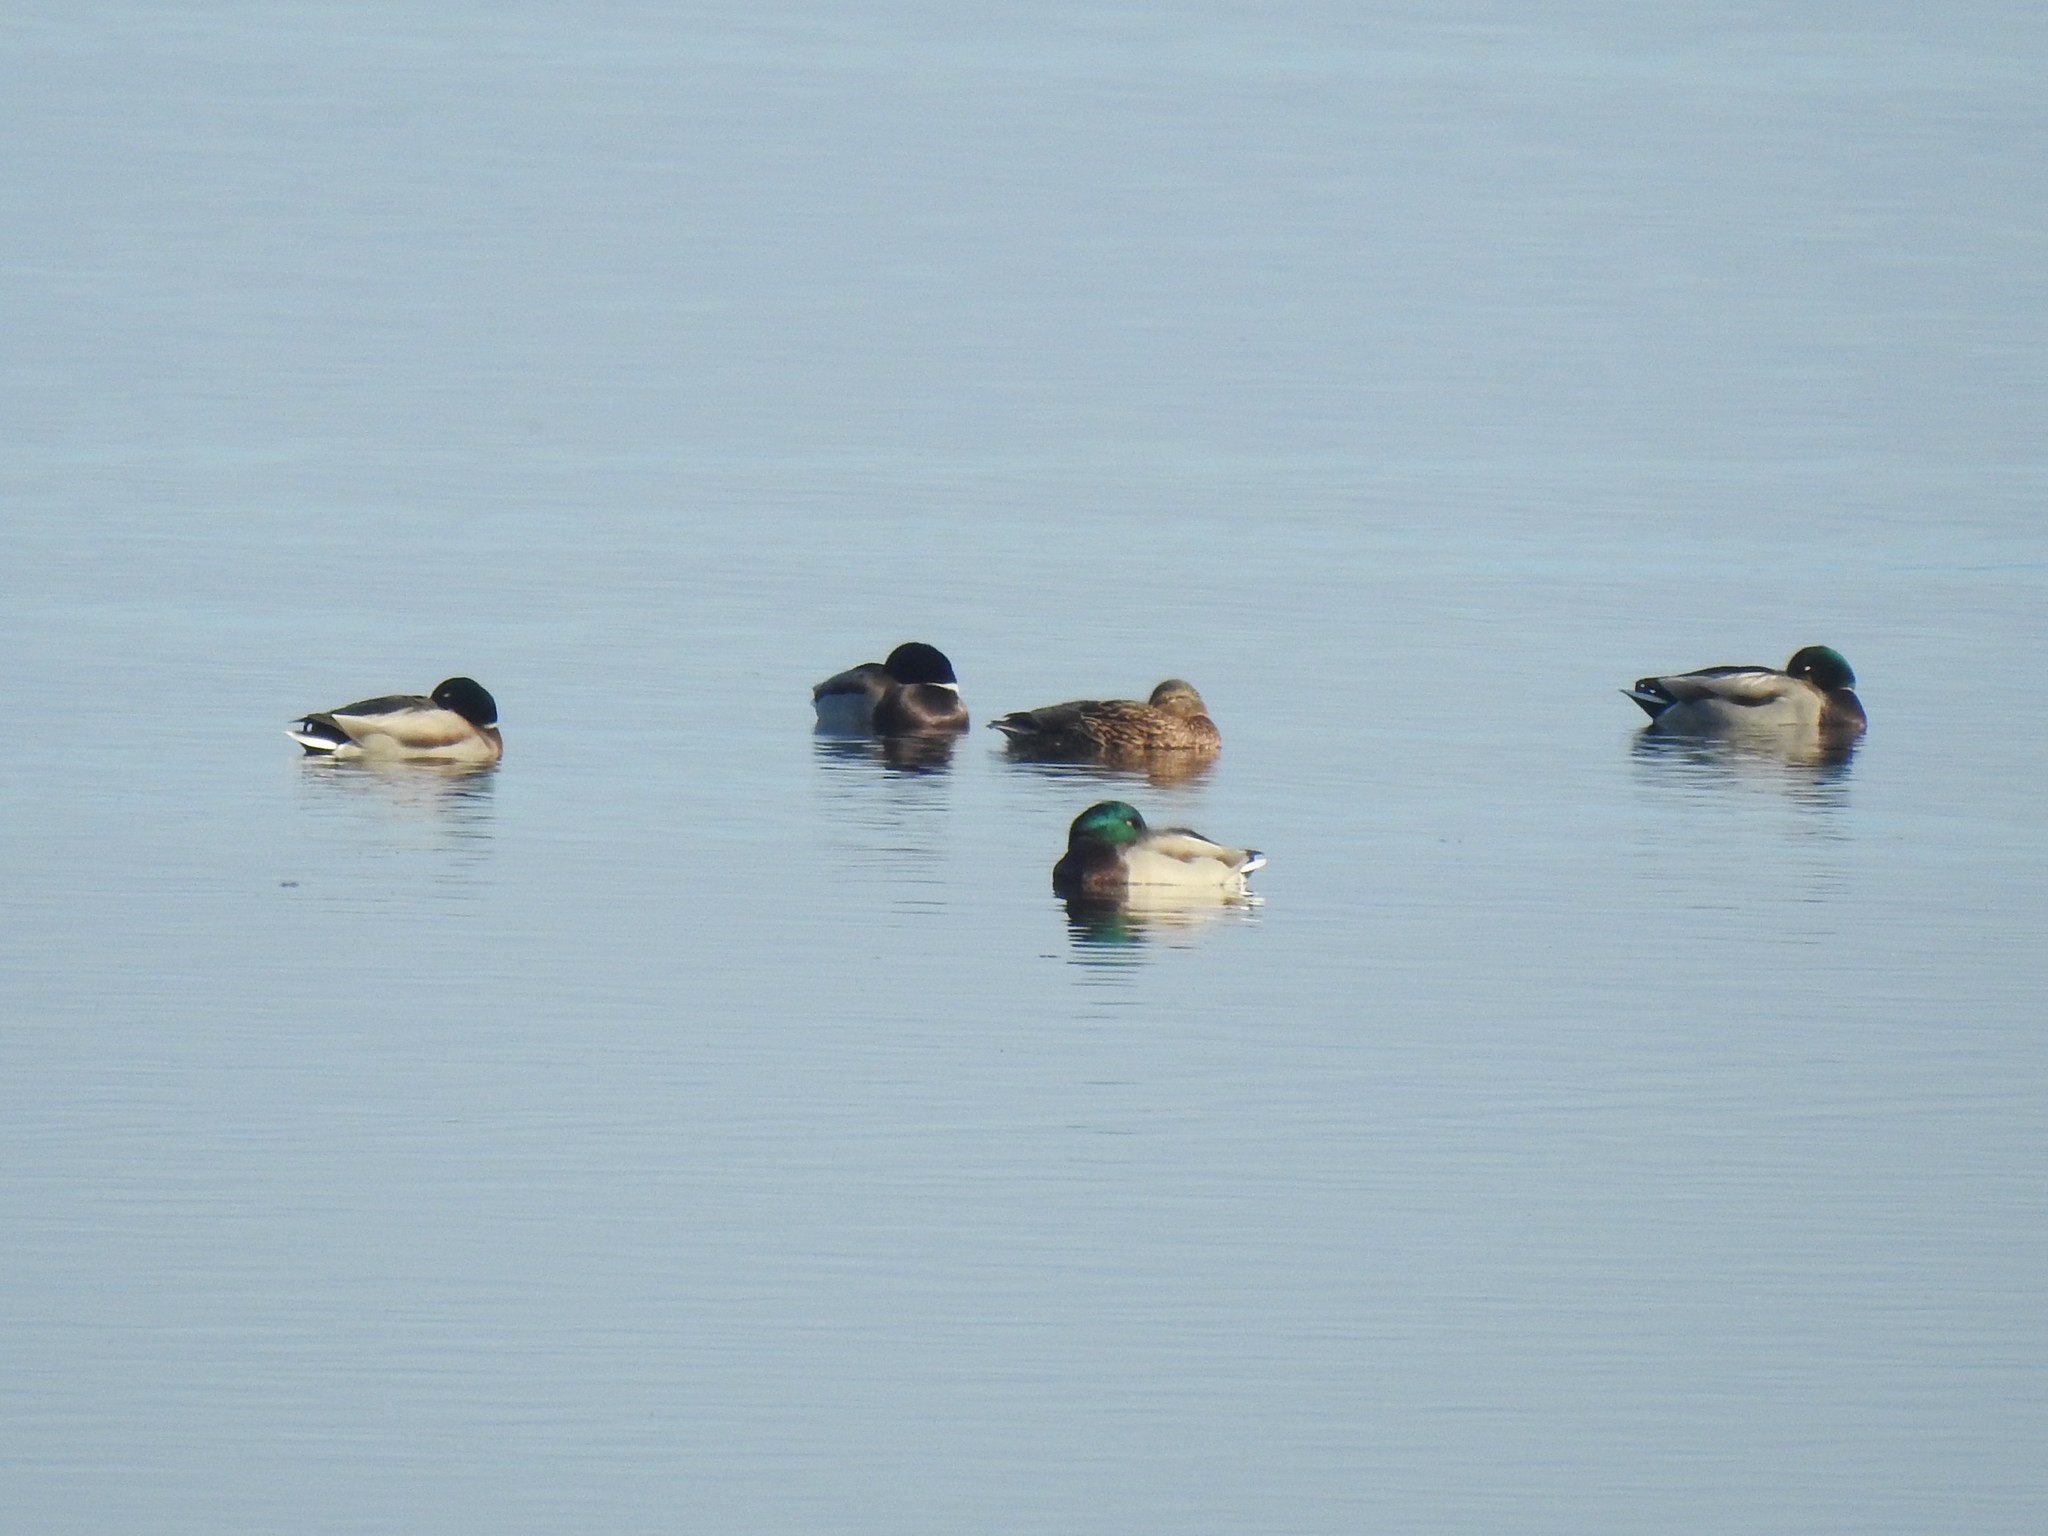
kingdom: Animalia
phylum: Chordata
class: Aves
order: Anseriformes
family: Anatidae
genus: Anas
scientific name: Anas platyrhynchos
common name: Mallard
